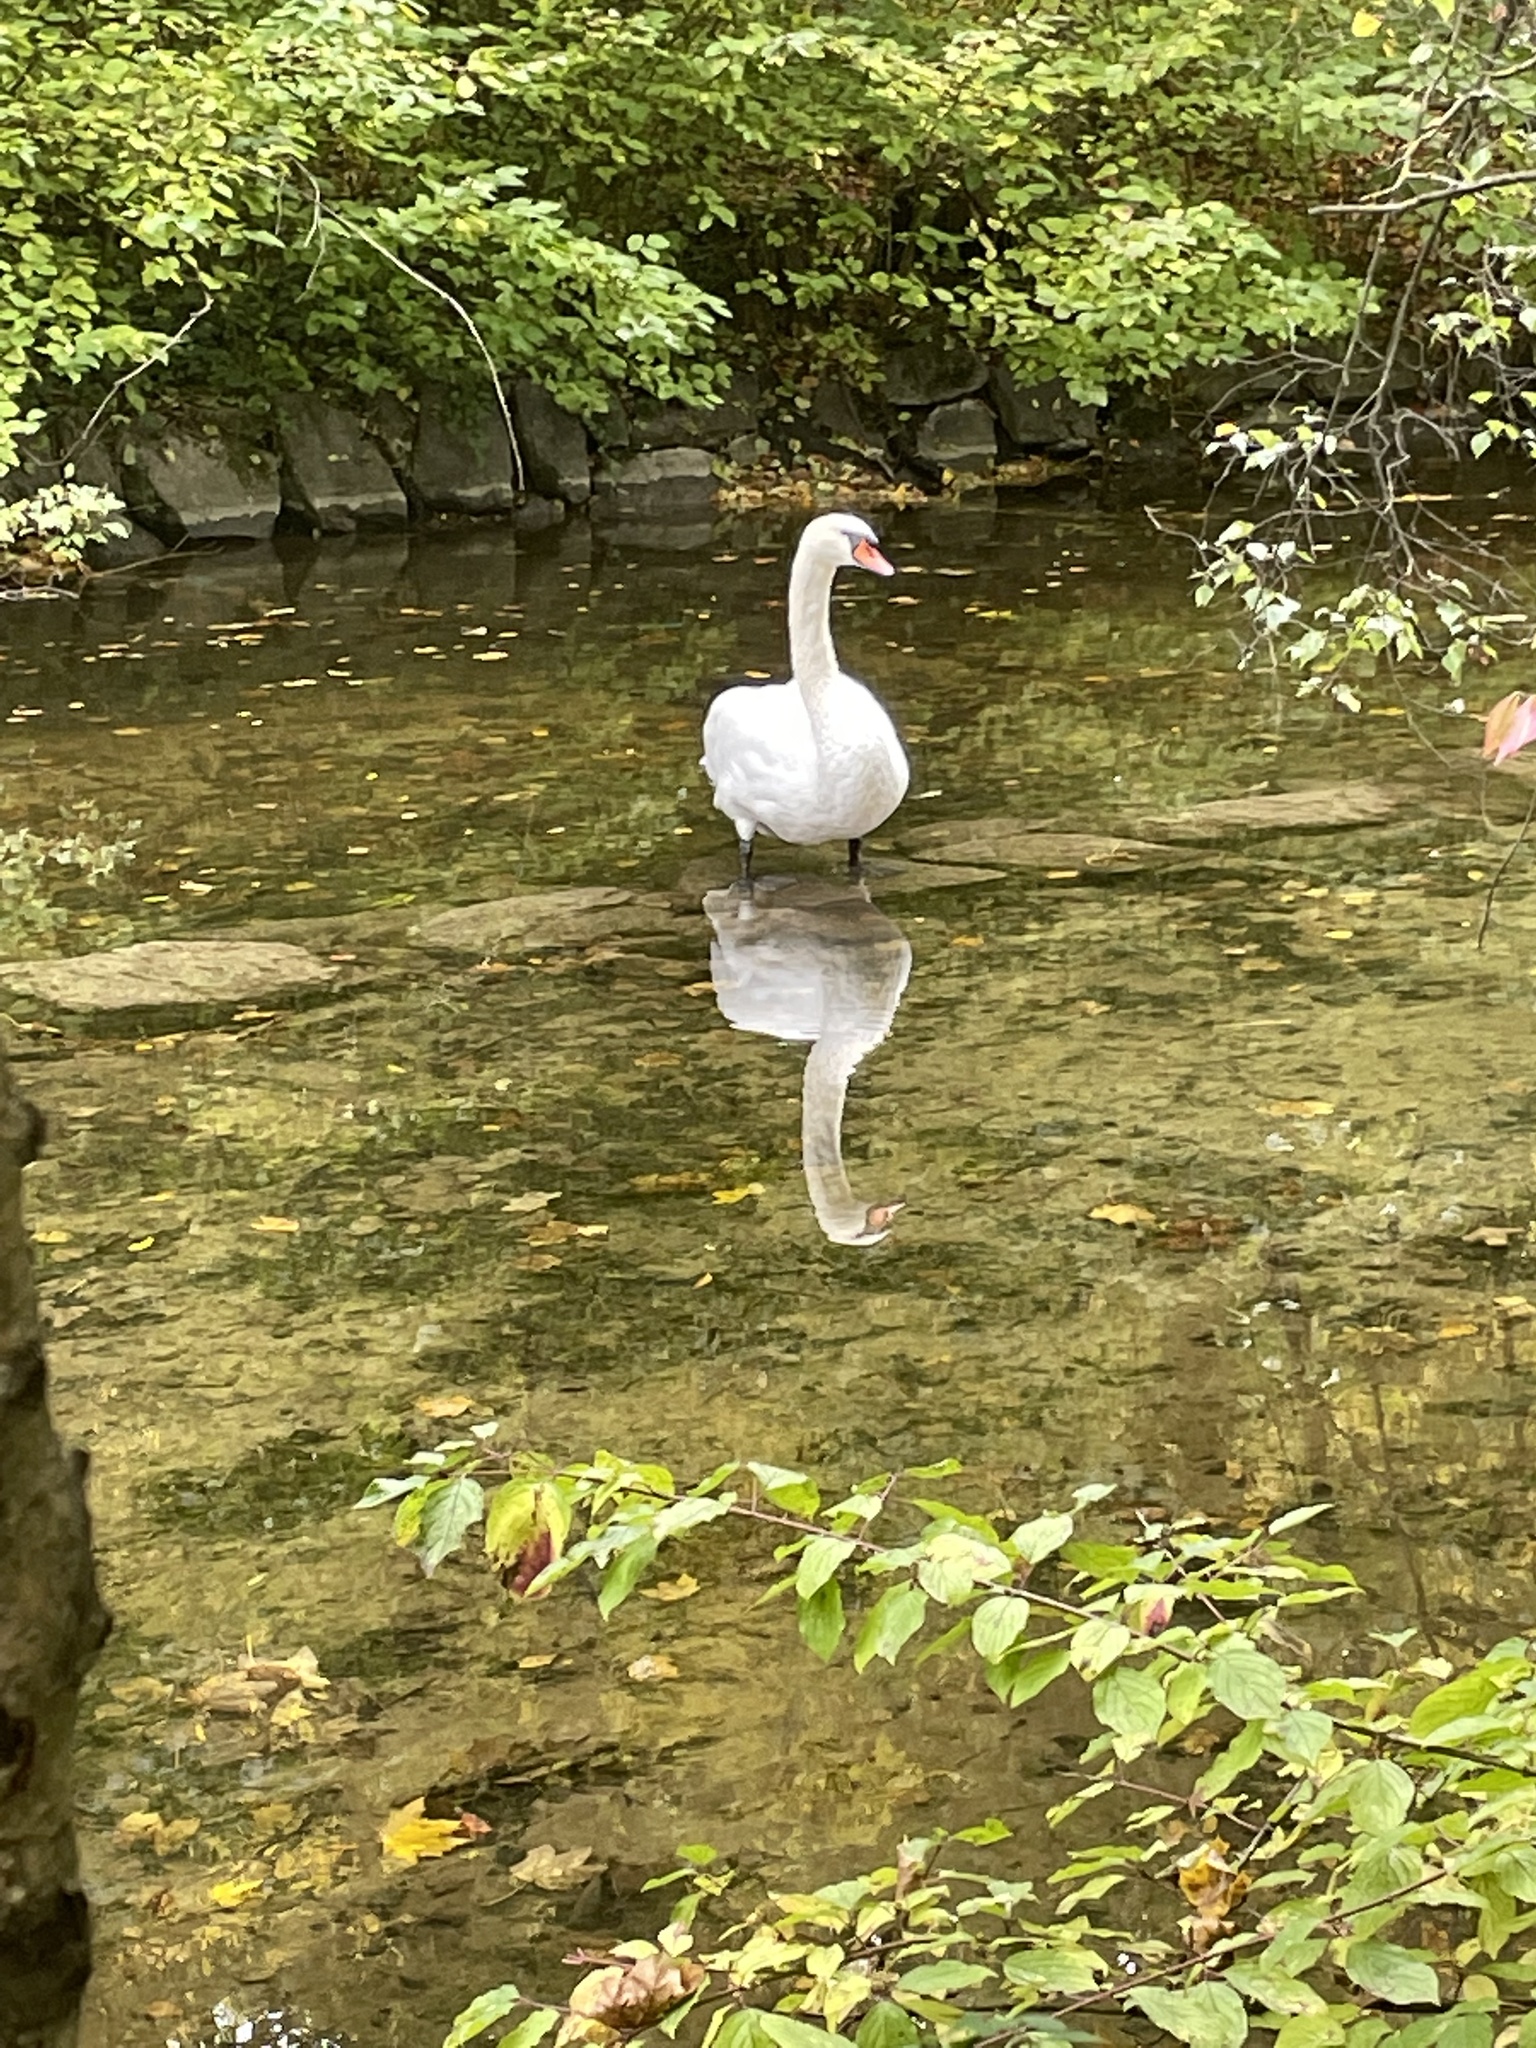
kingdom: Animalia
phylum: Chordata
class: Aves
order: Anseriformes
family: Anatidae
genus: Cygnus
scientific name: Cygnus olor
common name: Mute swan
